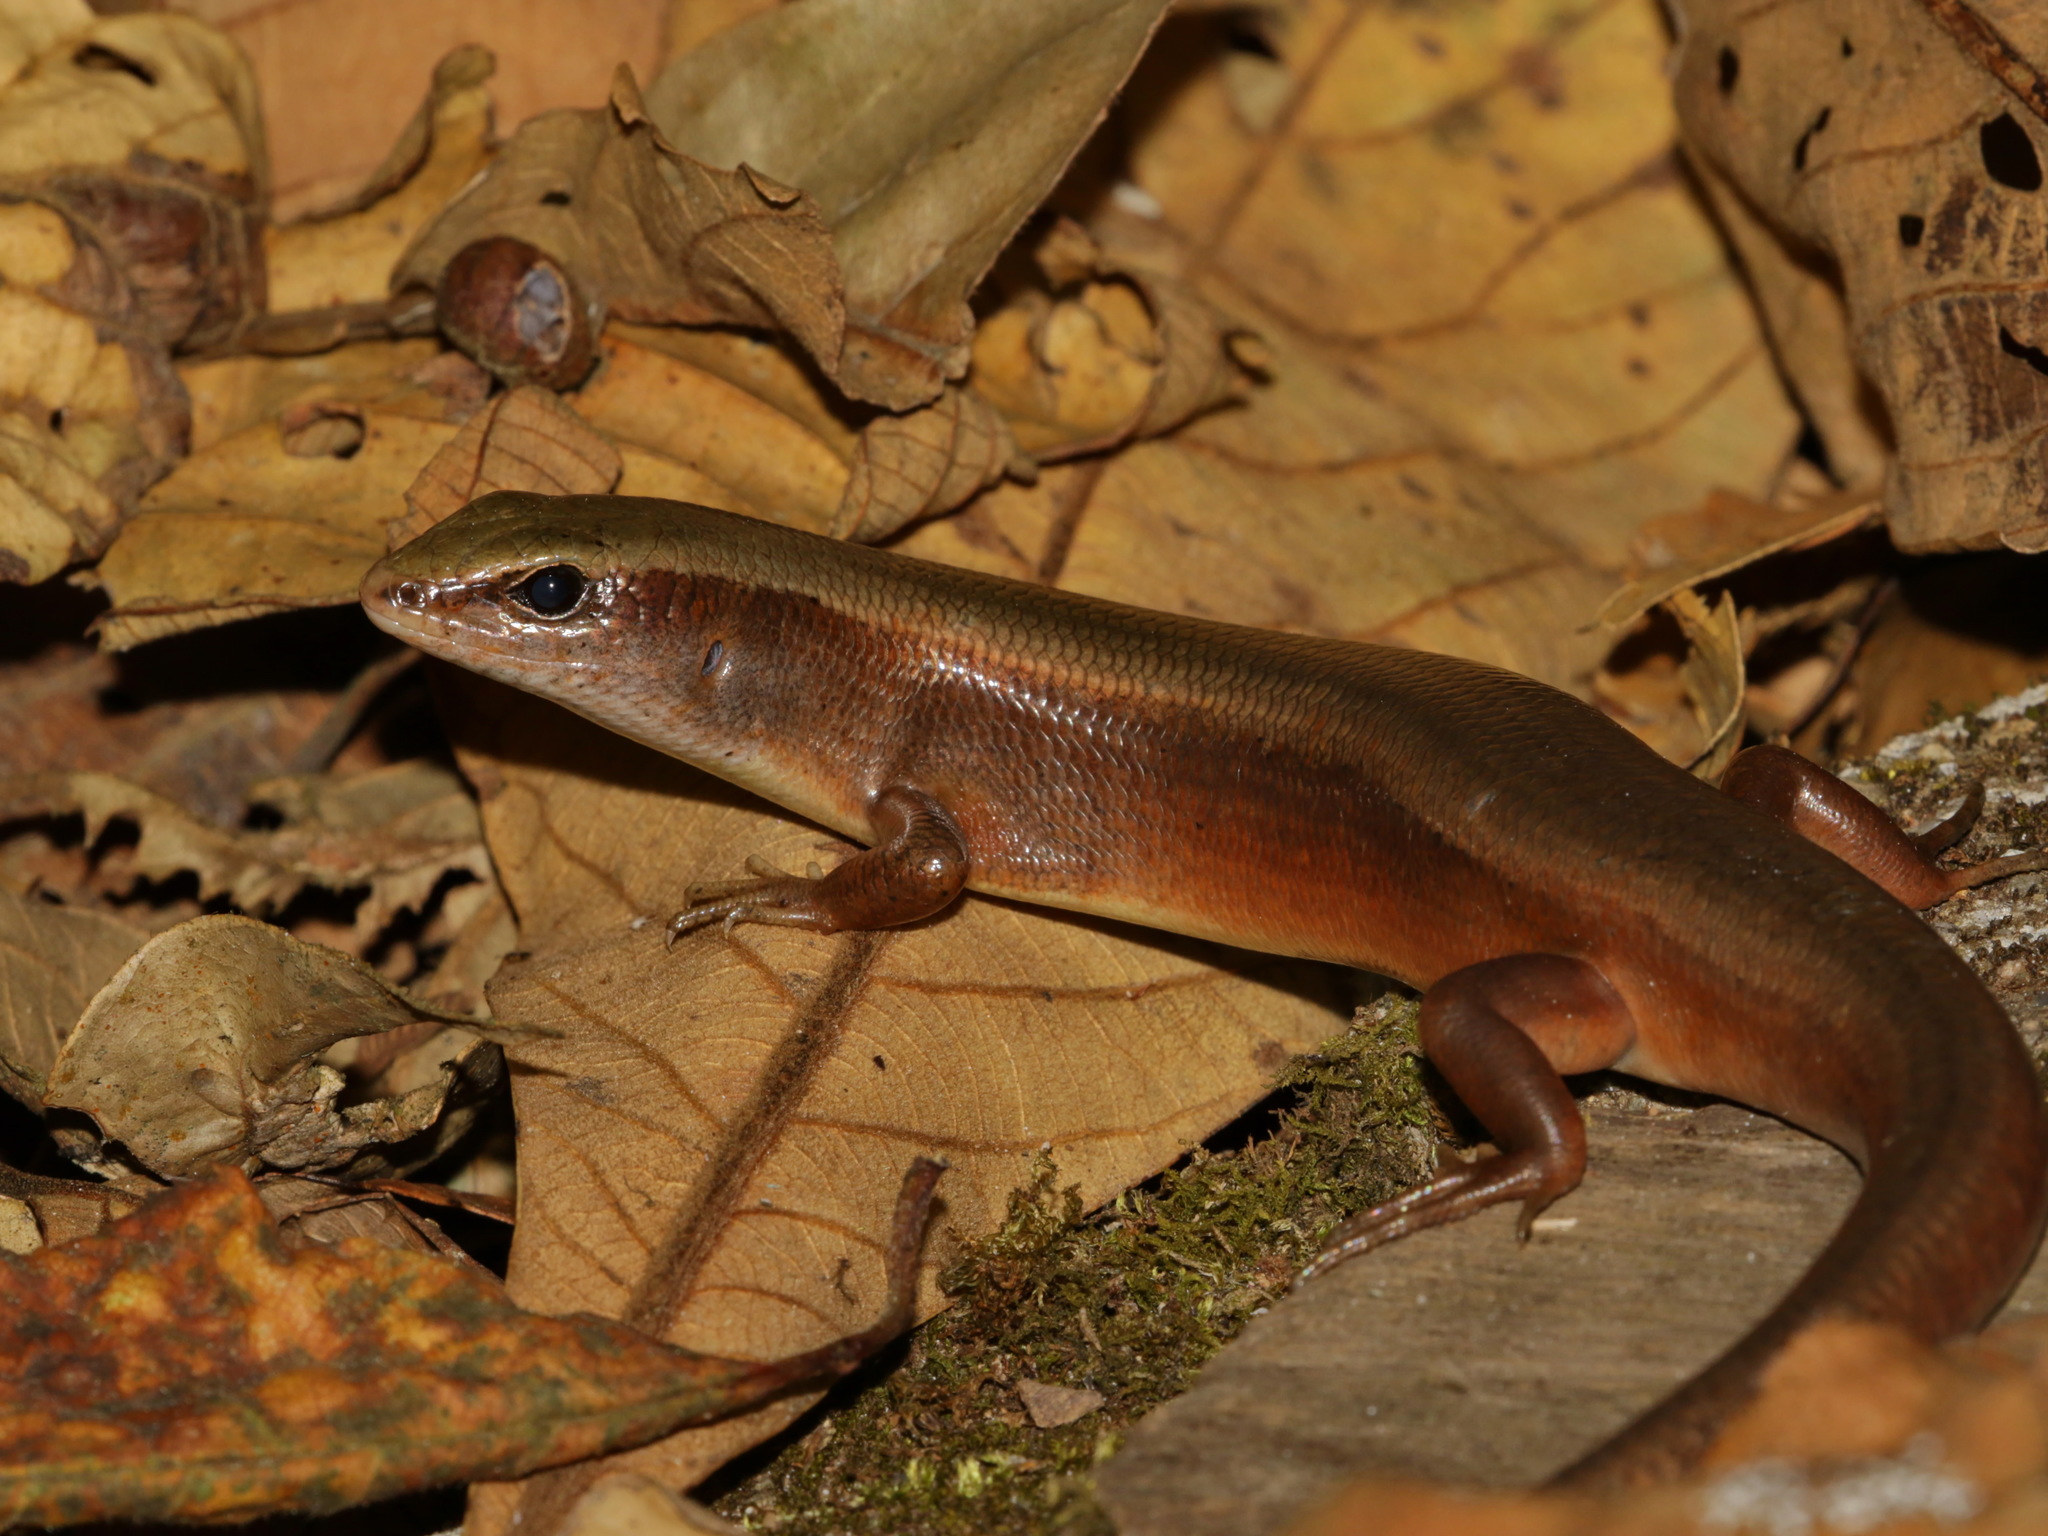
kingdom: Animalia
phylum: Chordata
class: Squamata
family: Scincidae
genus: Sphenomorphus
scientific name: Sphenomorphus indicus
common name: Himalayan forest skink
